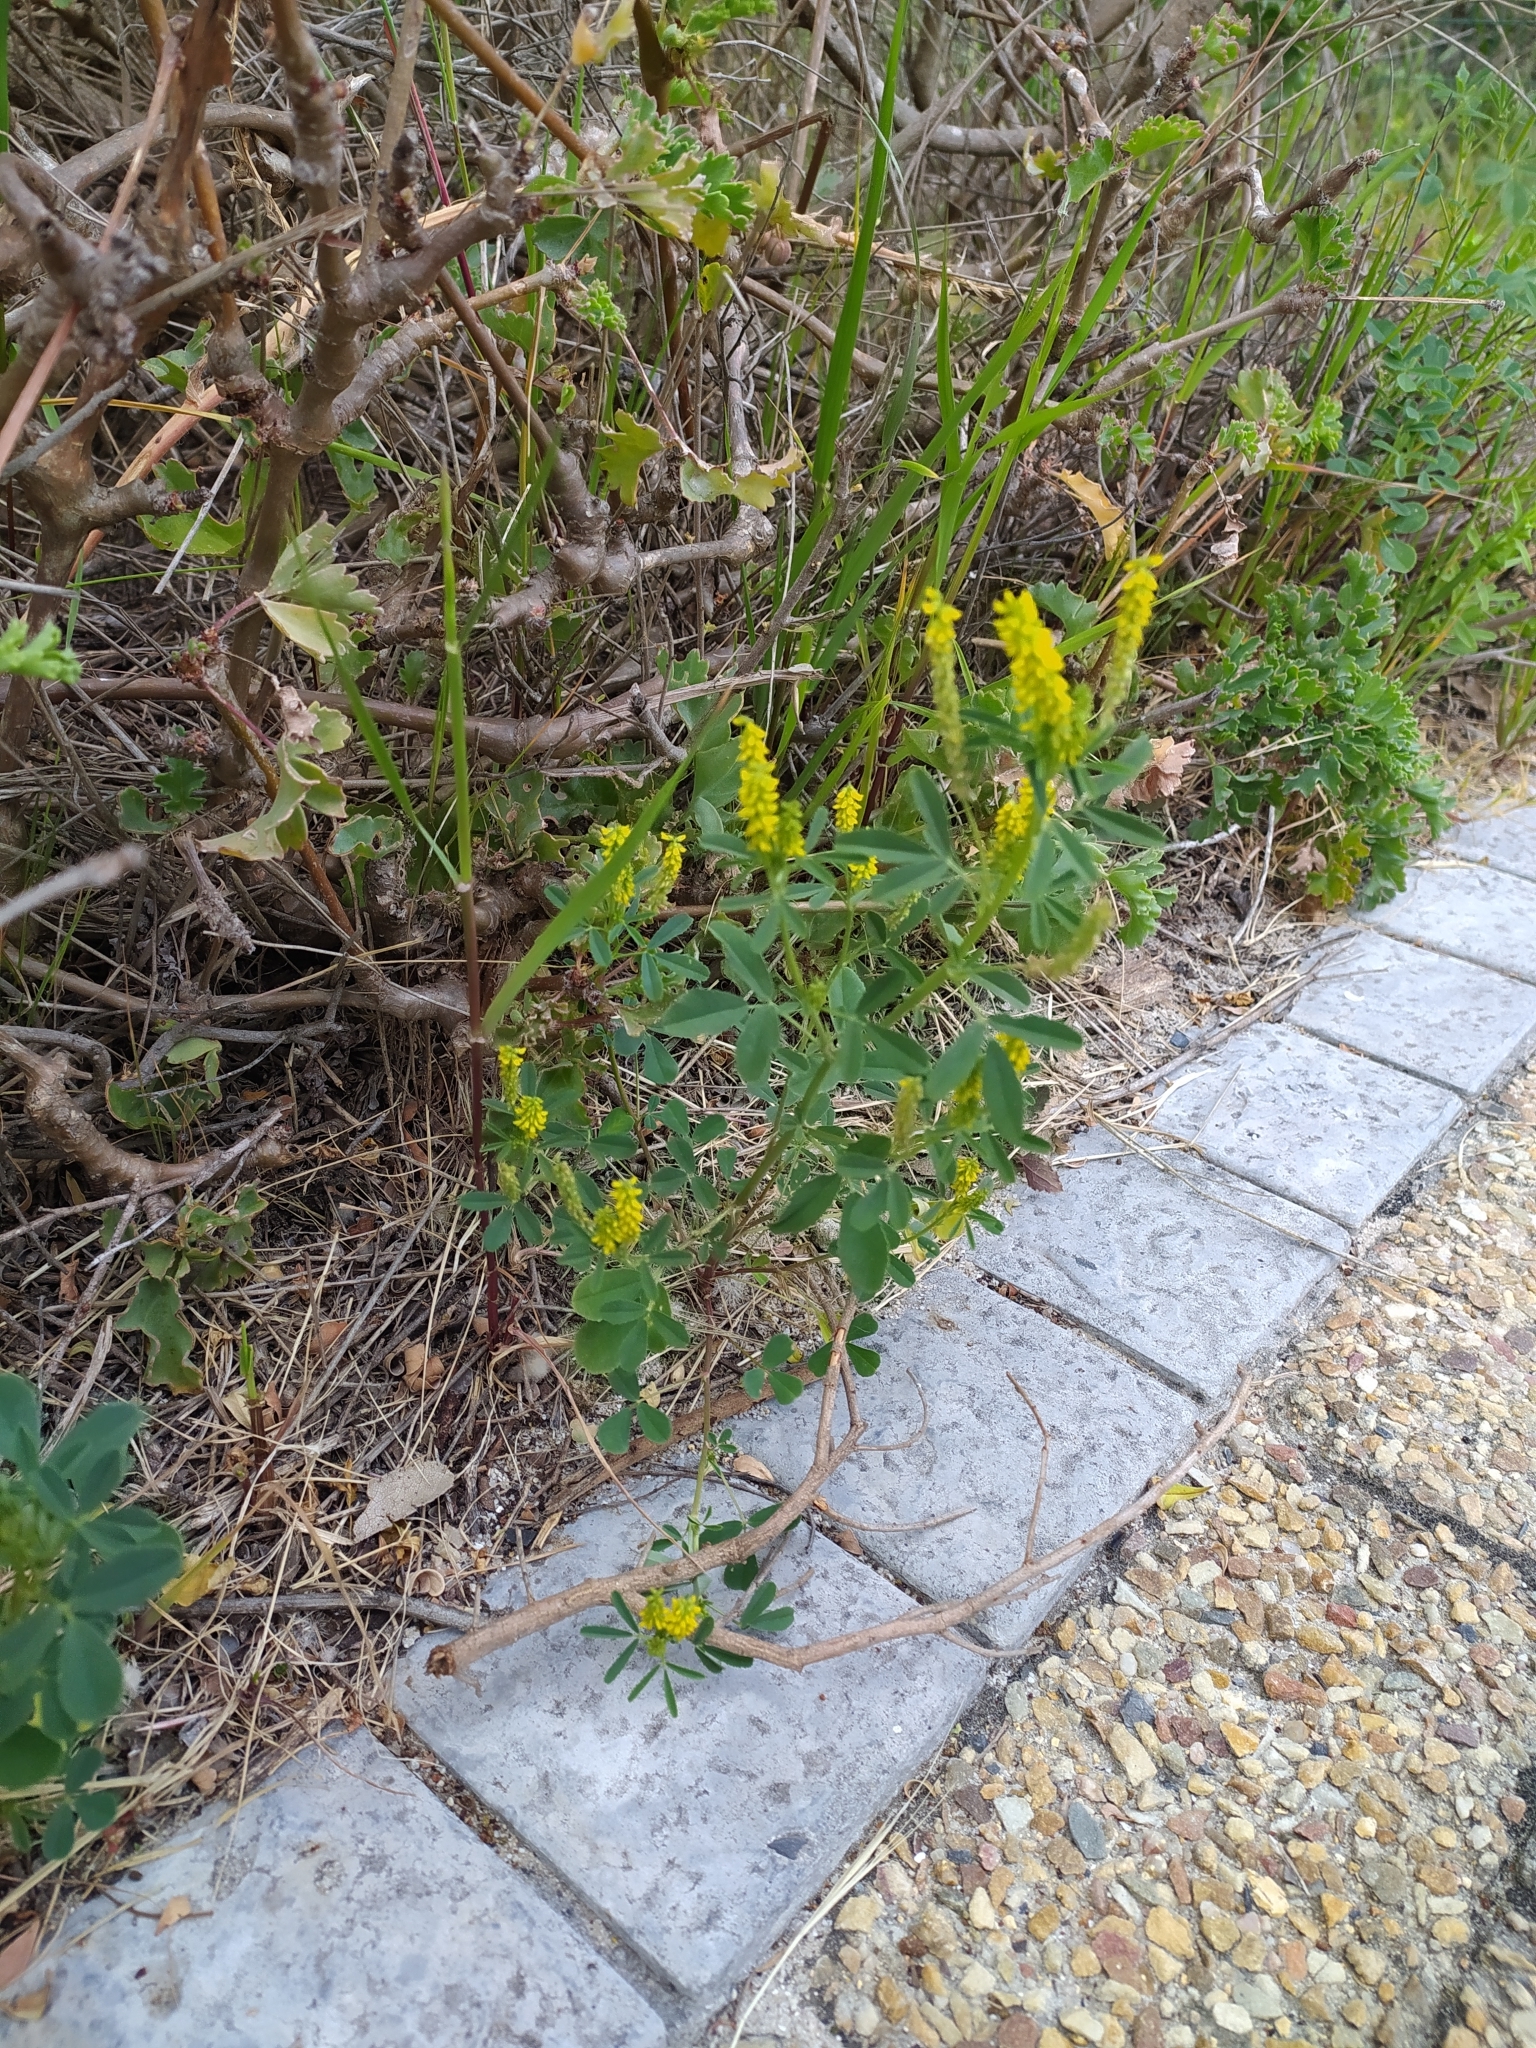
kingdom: Plantae
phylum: Tracheophyta
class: Magnoliopsida
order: Fabales
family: Fabaceae
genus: Melilotus
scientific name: Melilotus indicus
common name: Small melilot
